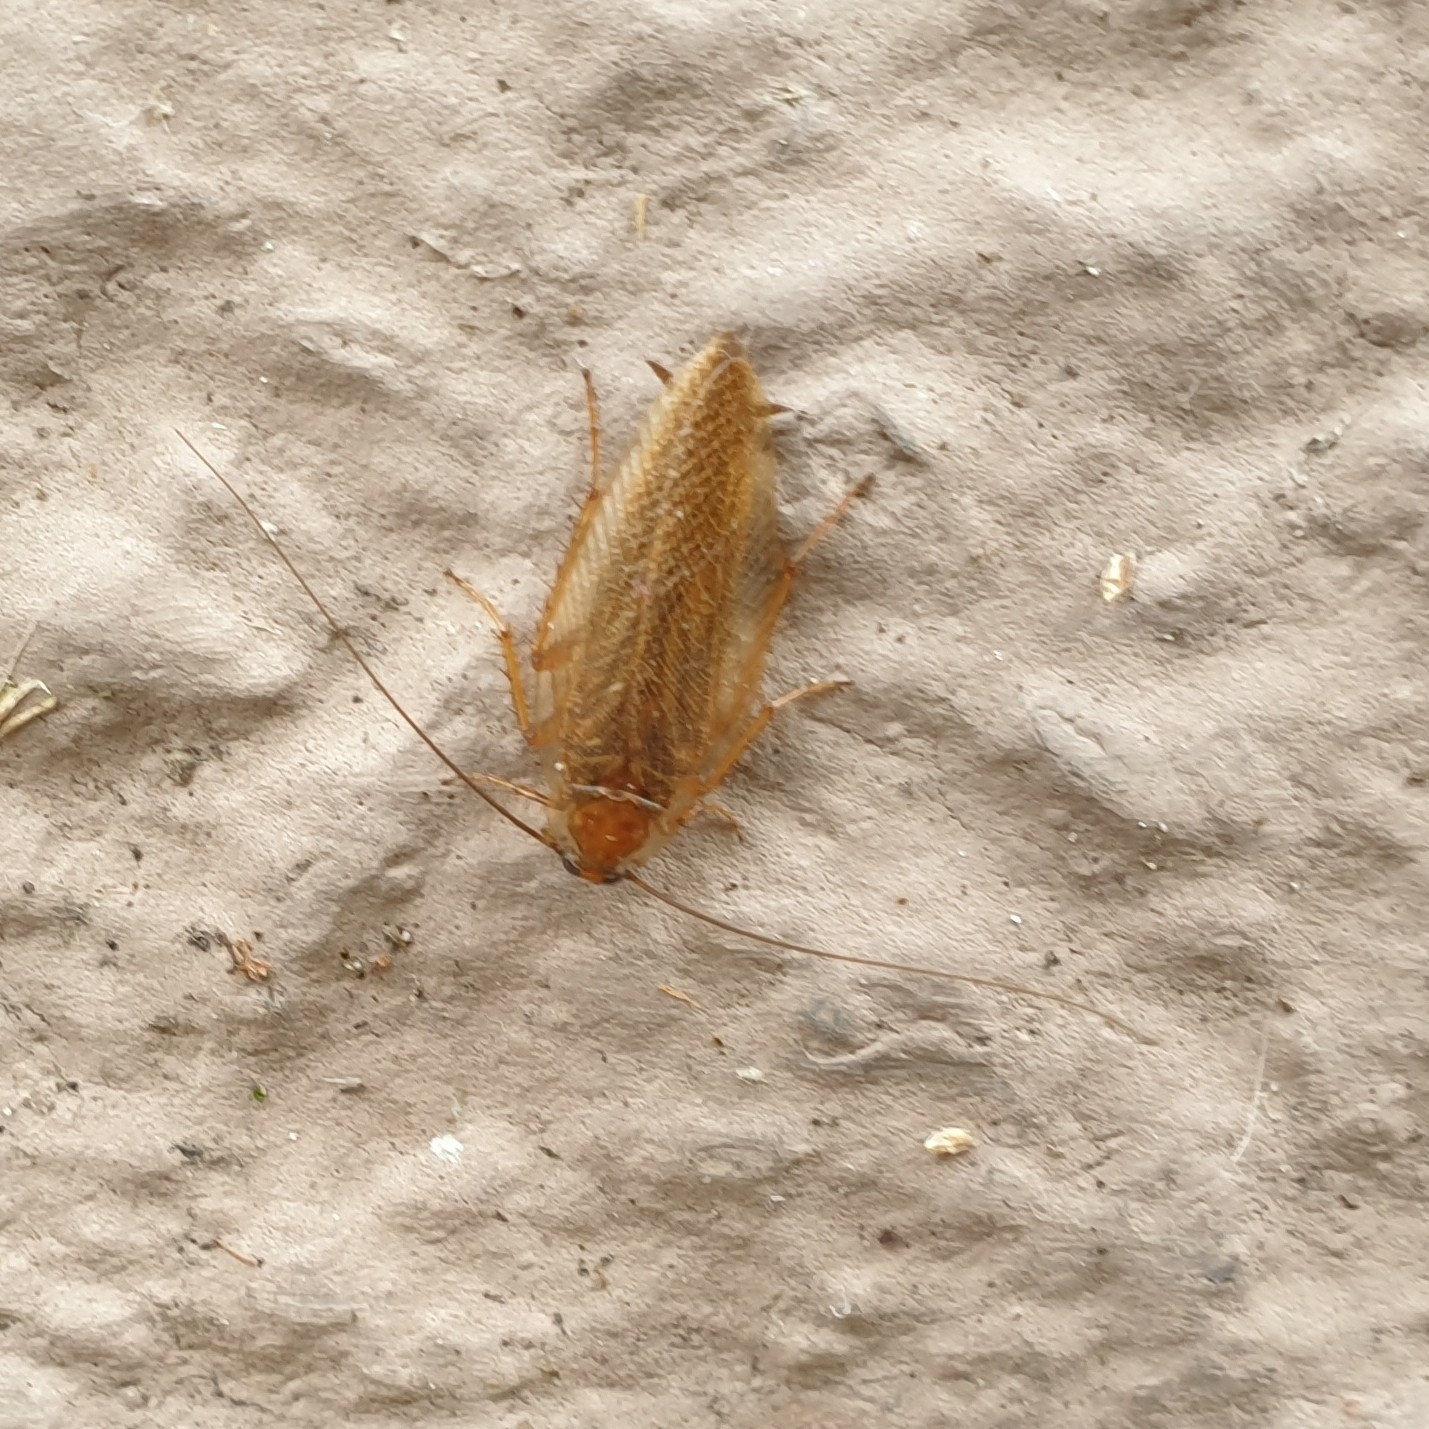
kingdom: Animalia
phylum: Arthropoda
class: Insecta
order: Blattodea
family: Ectobiidae
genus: Ectobius
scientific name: Ectobius vittiventris
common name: Garden cockroach
